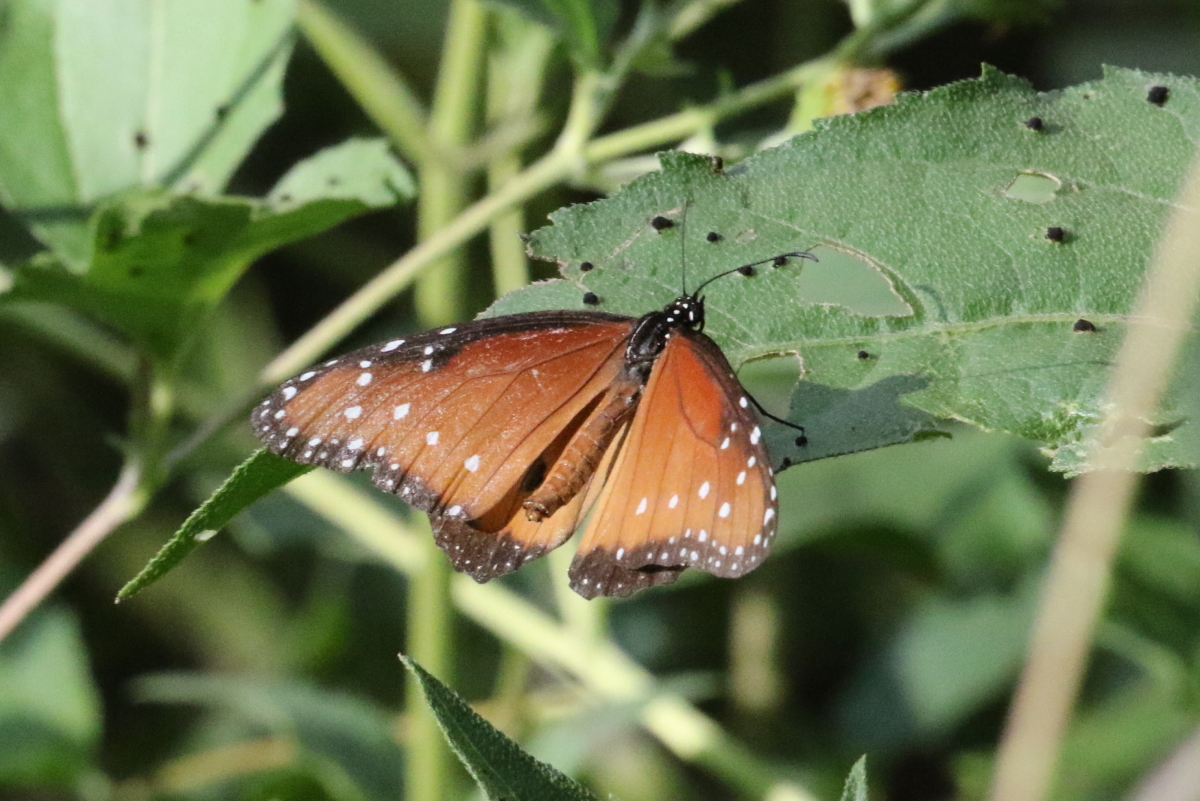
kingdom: Animalia
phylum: Arthropoda
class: Insecta
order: Lepidoptera
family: Nymphalidae
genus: Danaus
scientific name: Danaus gilippus
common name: Queen
